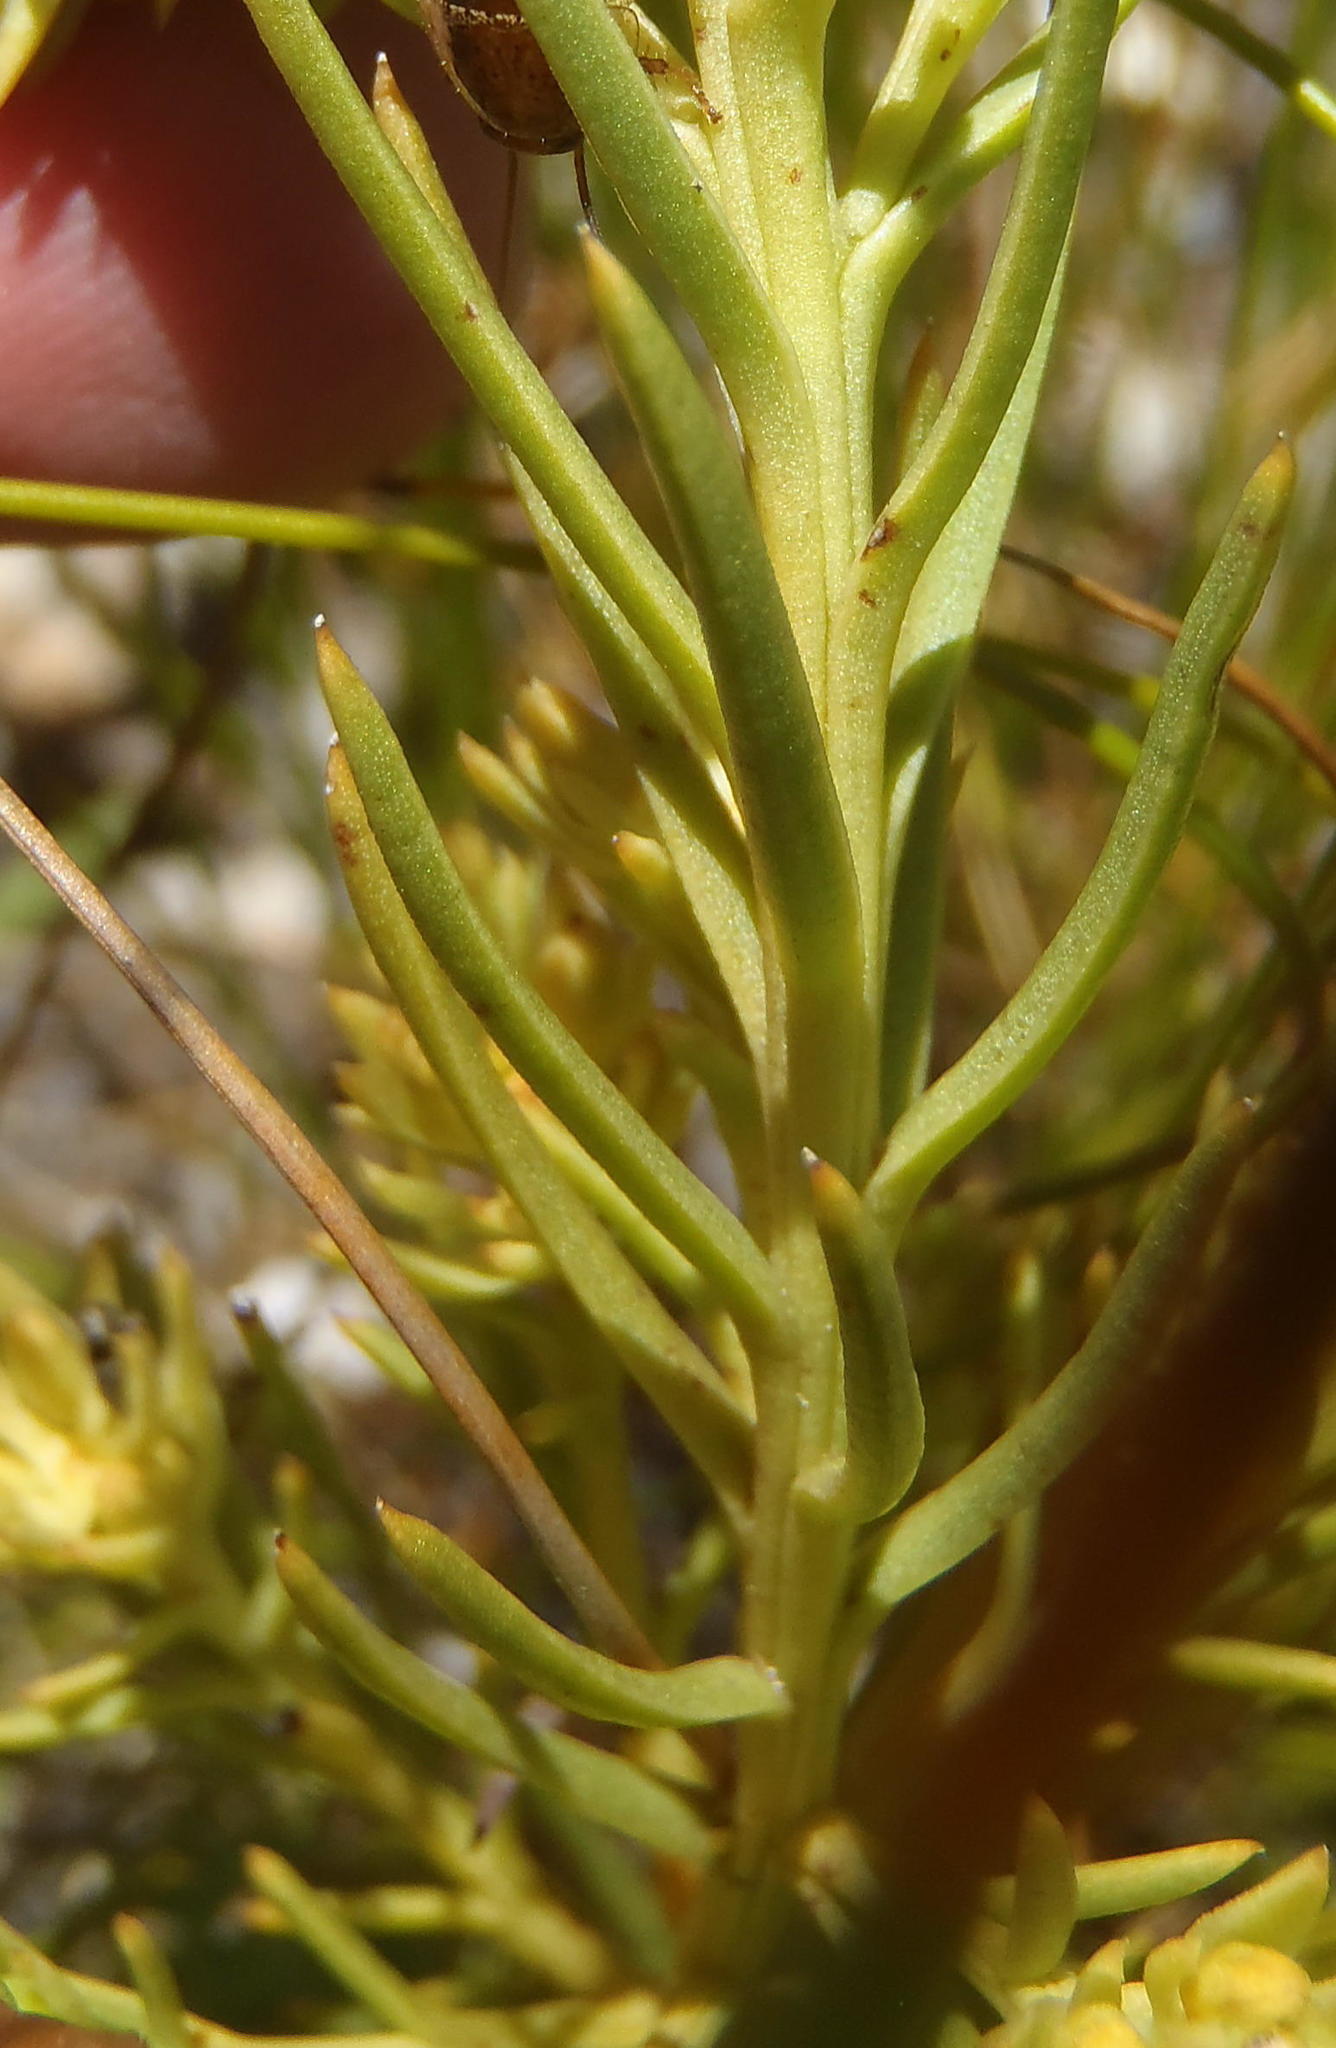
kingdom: Plantae
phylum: Tracheophyta
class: Magnoliopsida
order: Santalales
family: Thesiaceae
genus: Thesium
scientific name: Thesium glomeratum
